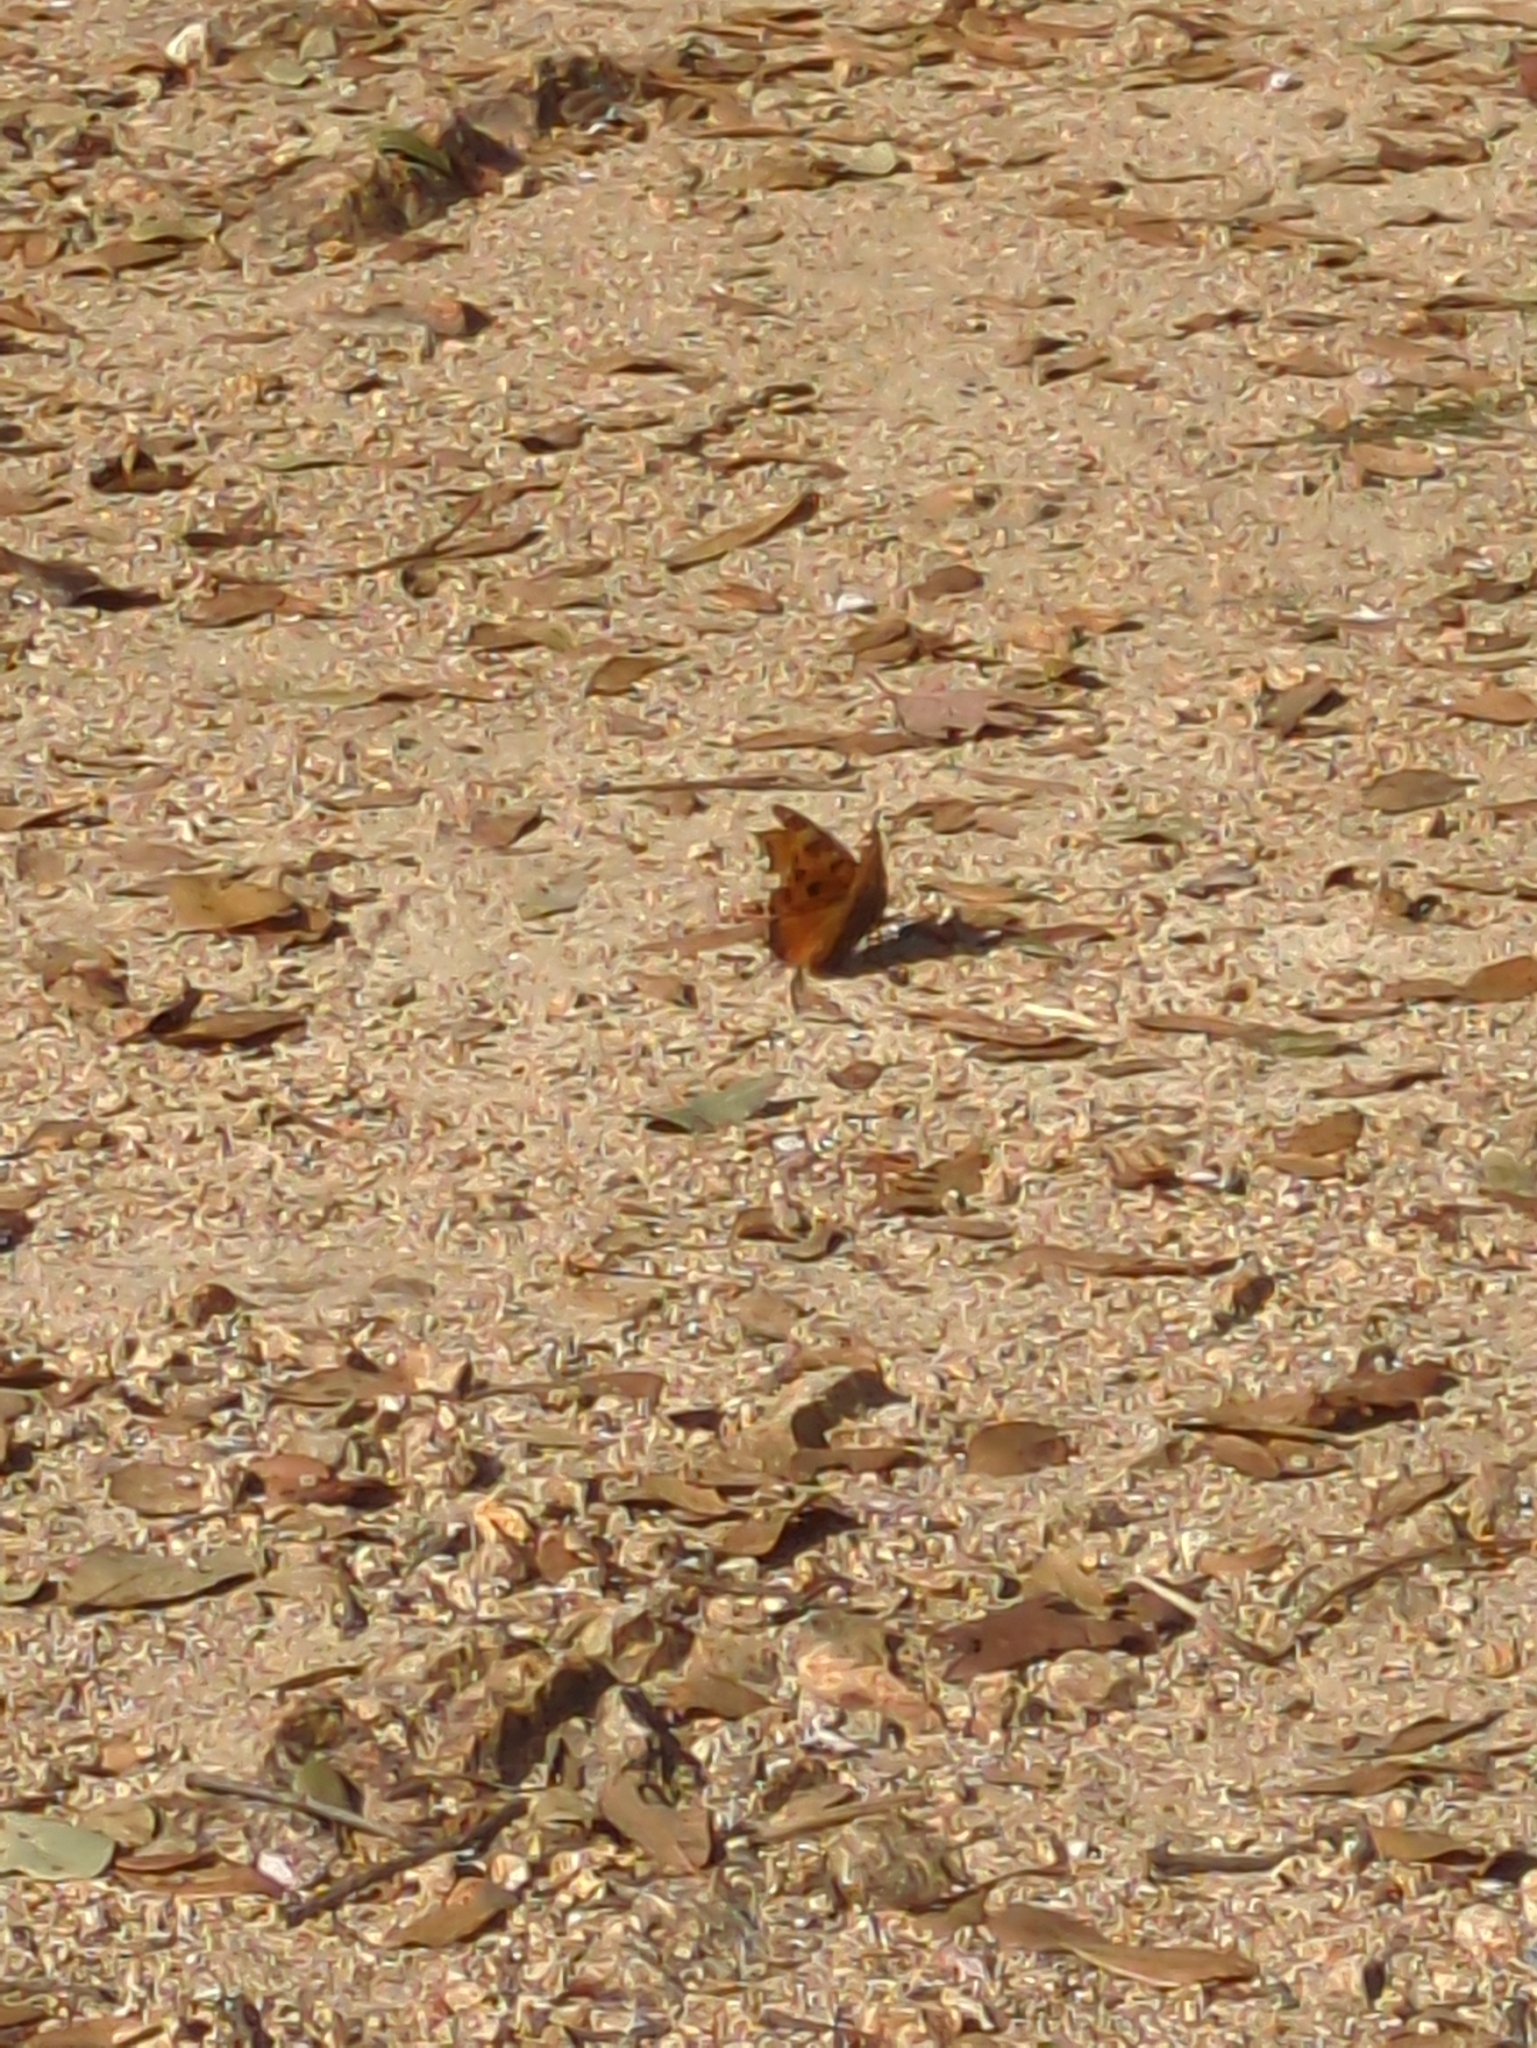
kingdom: Animalia
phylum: Arthropoda
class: Insecta
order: Lepidoptera
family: Nymphalidae
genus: Nymphalis
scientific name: Nymphalis xanthomelas
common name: Scarce tortoiseshell
